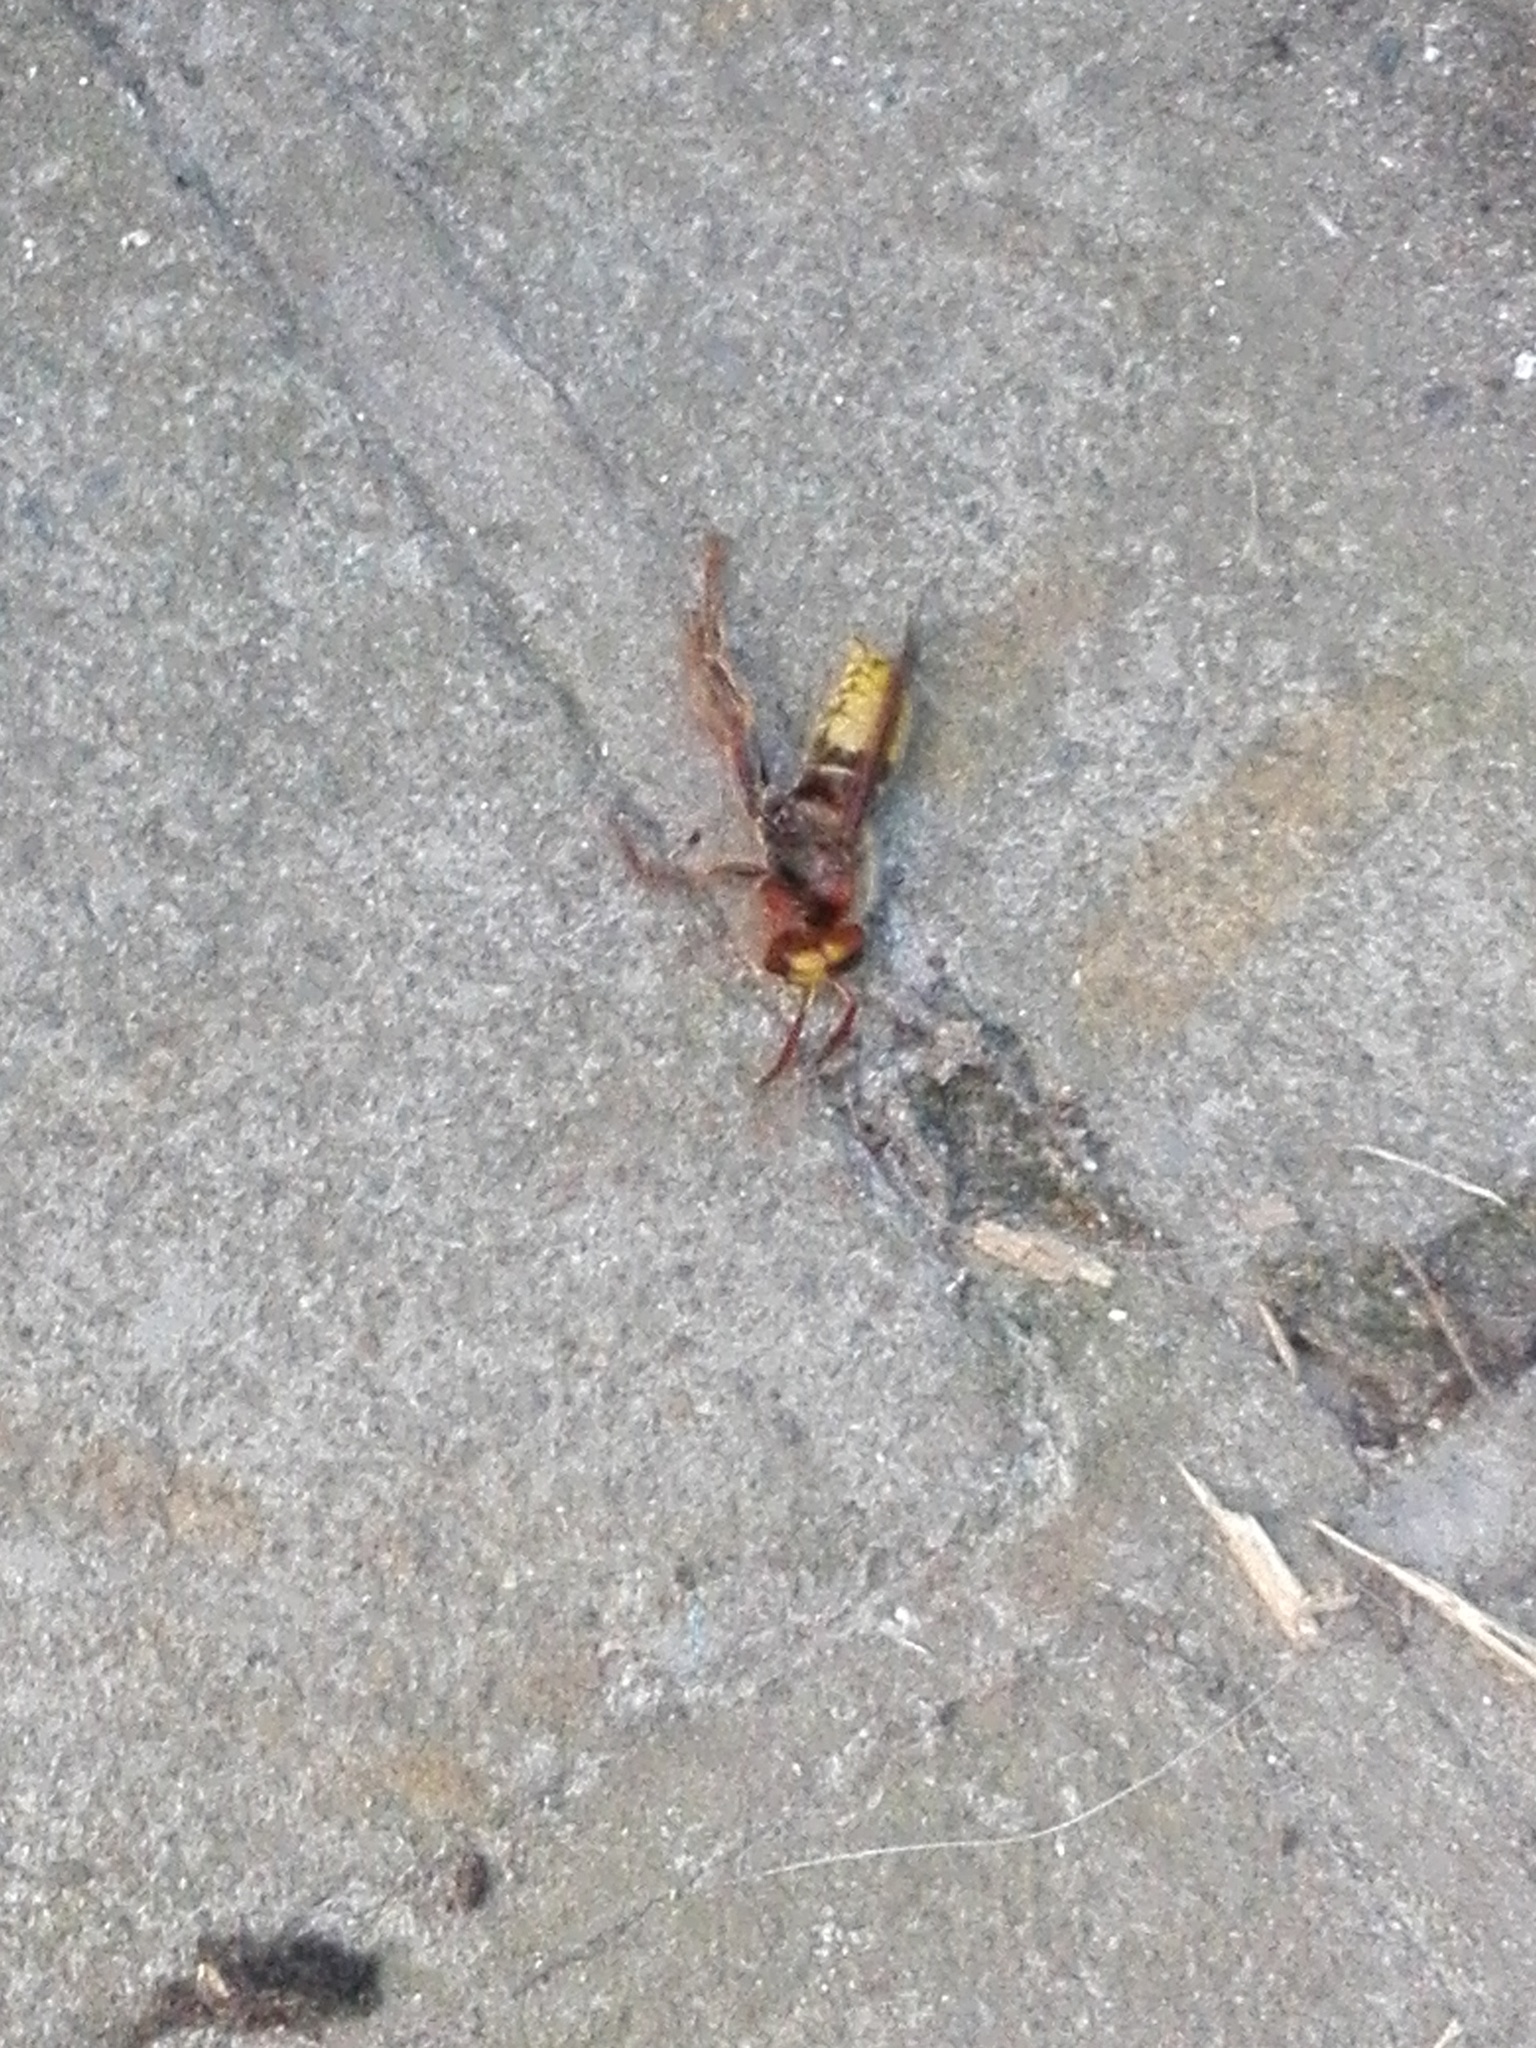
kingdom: Animalia
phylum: Arthropoda
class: Insecta
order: Hymenoptera
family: Vespidae
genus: Vespa
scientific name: Vespa crabro
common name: Hornet
